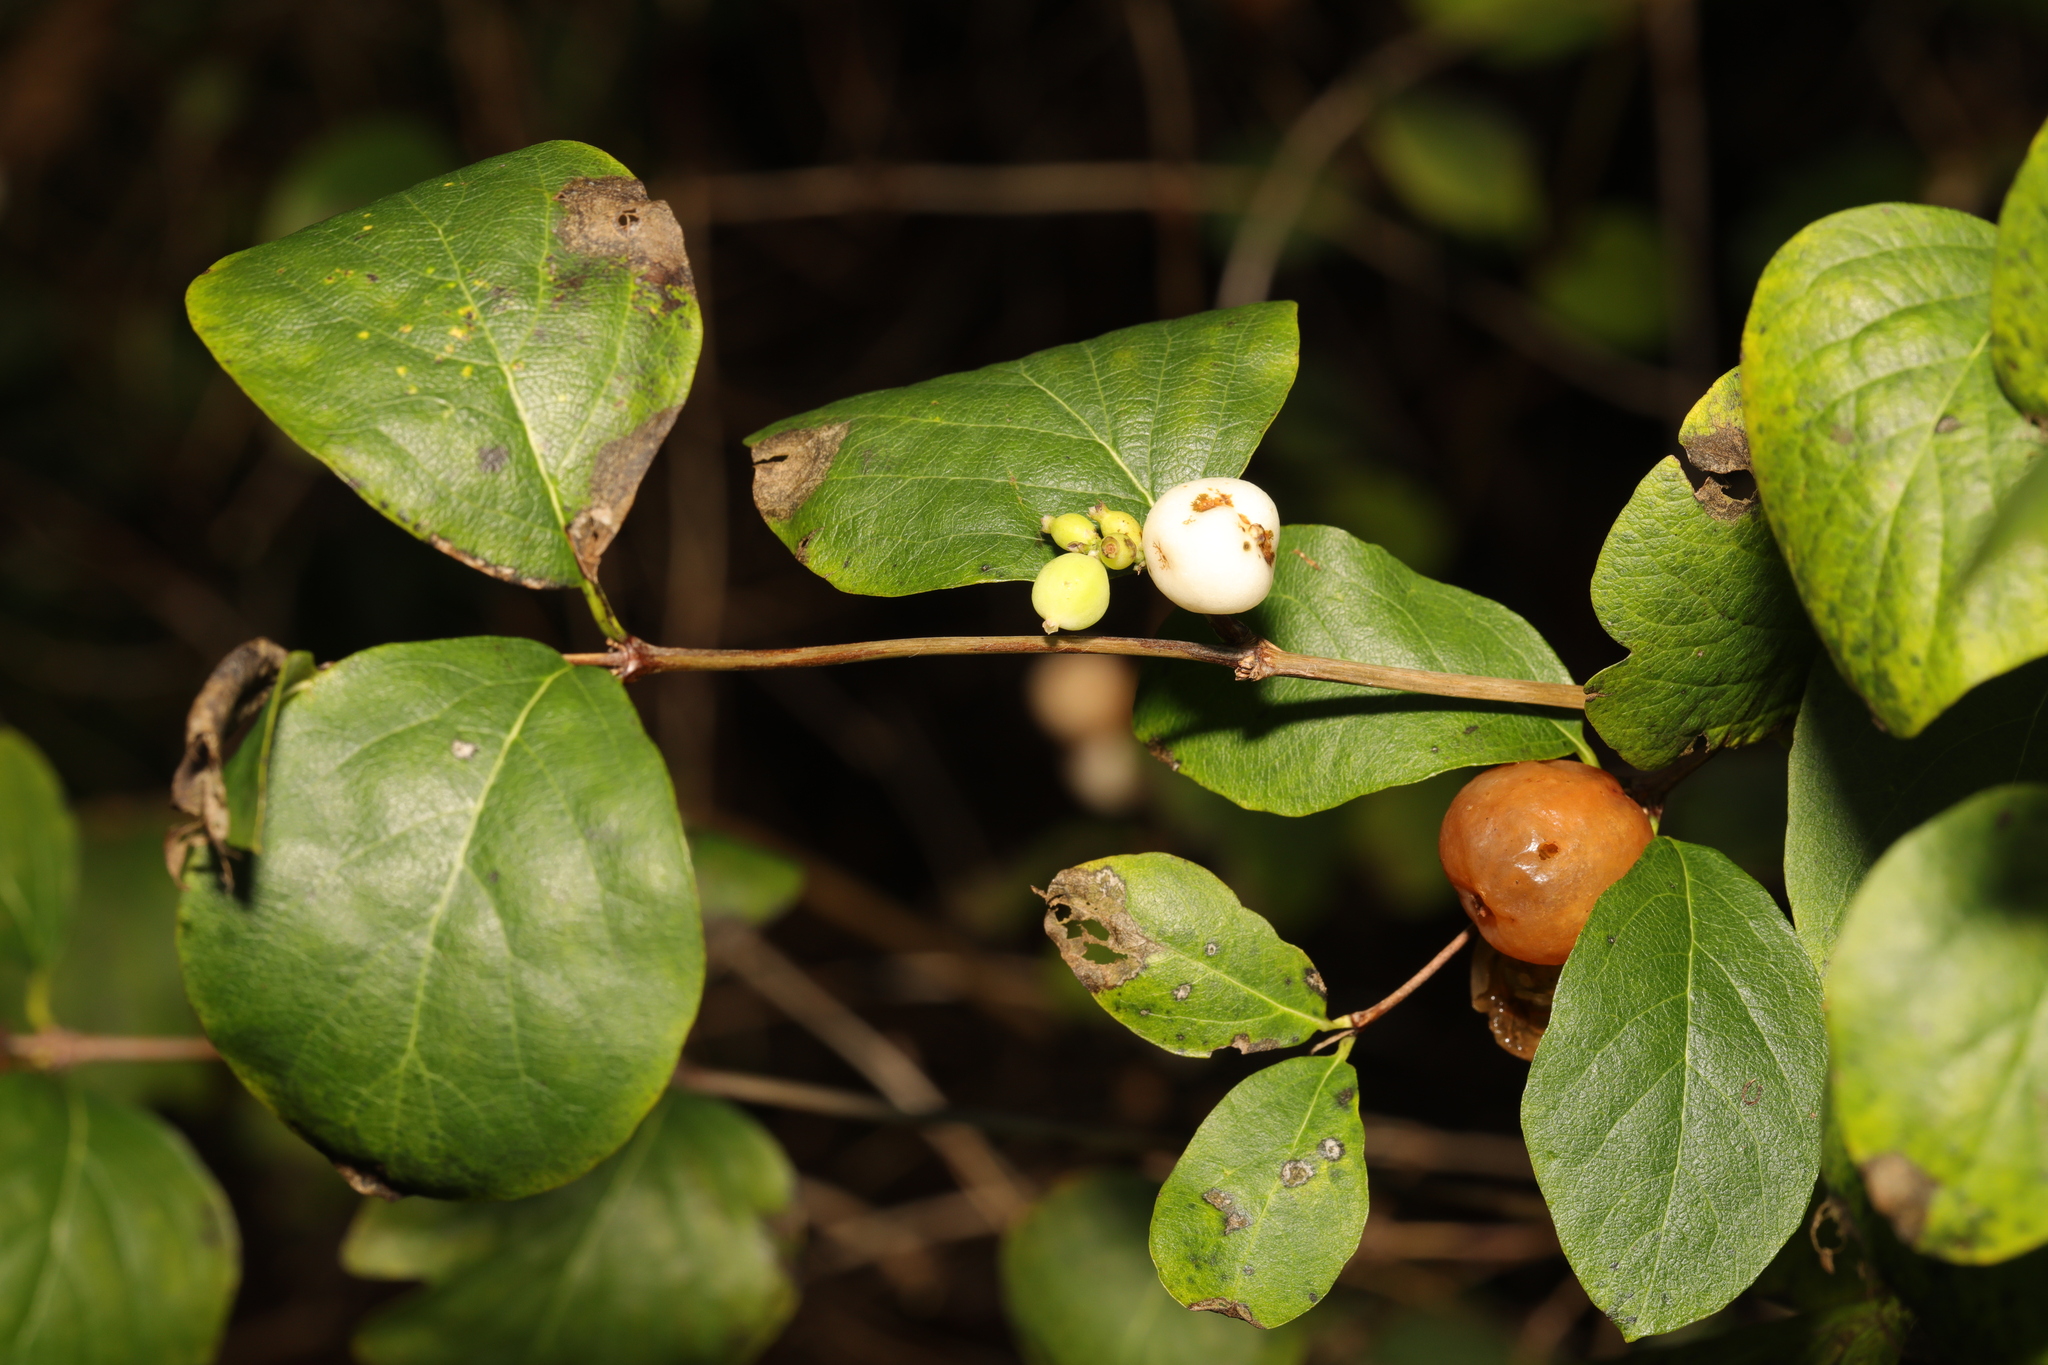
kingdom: Plantae
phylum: Tracheophyta
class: Magnoliopsida
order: Dipsacales
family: Caprifoliaceae
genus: Symphoricarpos
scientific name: Symphoricarpos albus
